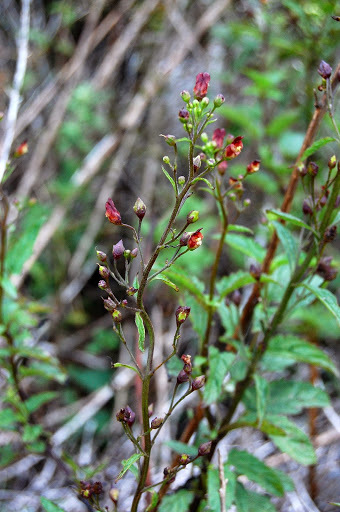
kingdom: Plantae
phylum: Tracheophyta
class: Magnoliopsida
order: Lamiales
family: Scrophulariaceae
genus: Scrophularia
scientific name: Scrophularia californica
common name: California figwort
